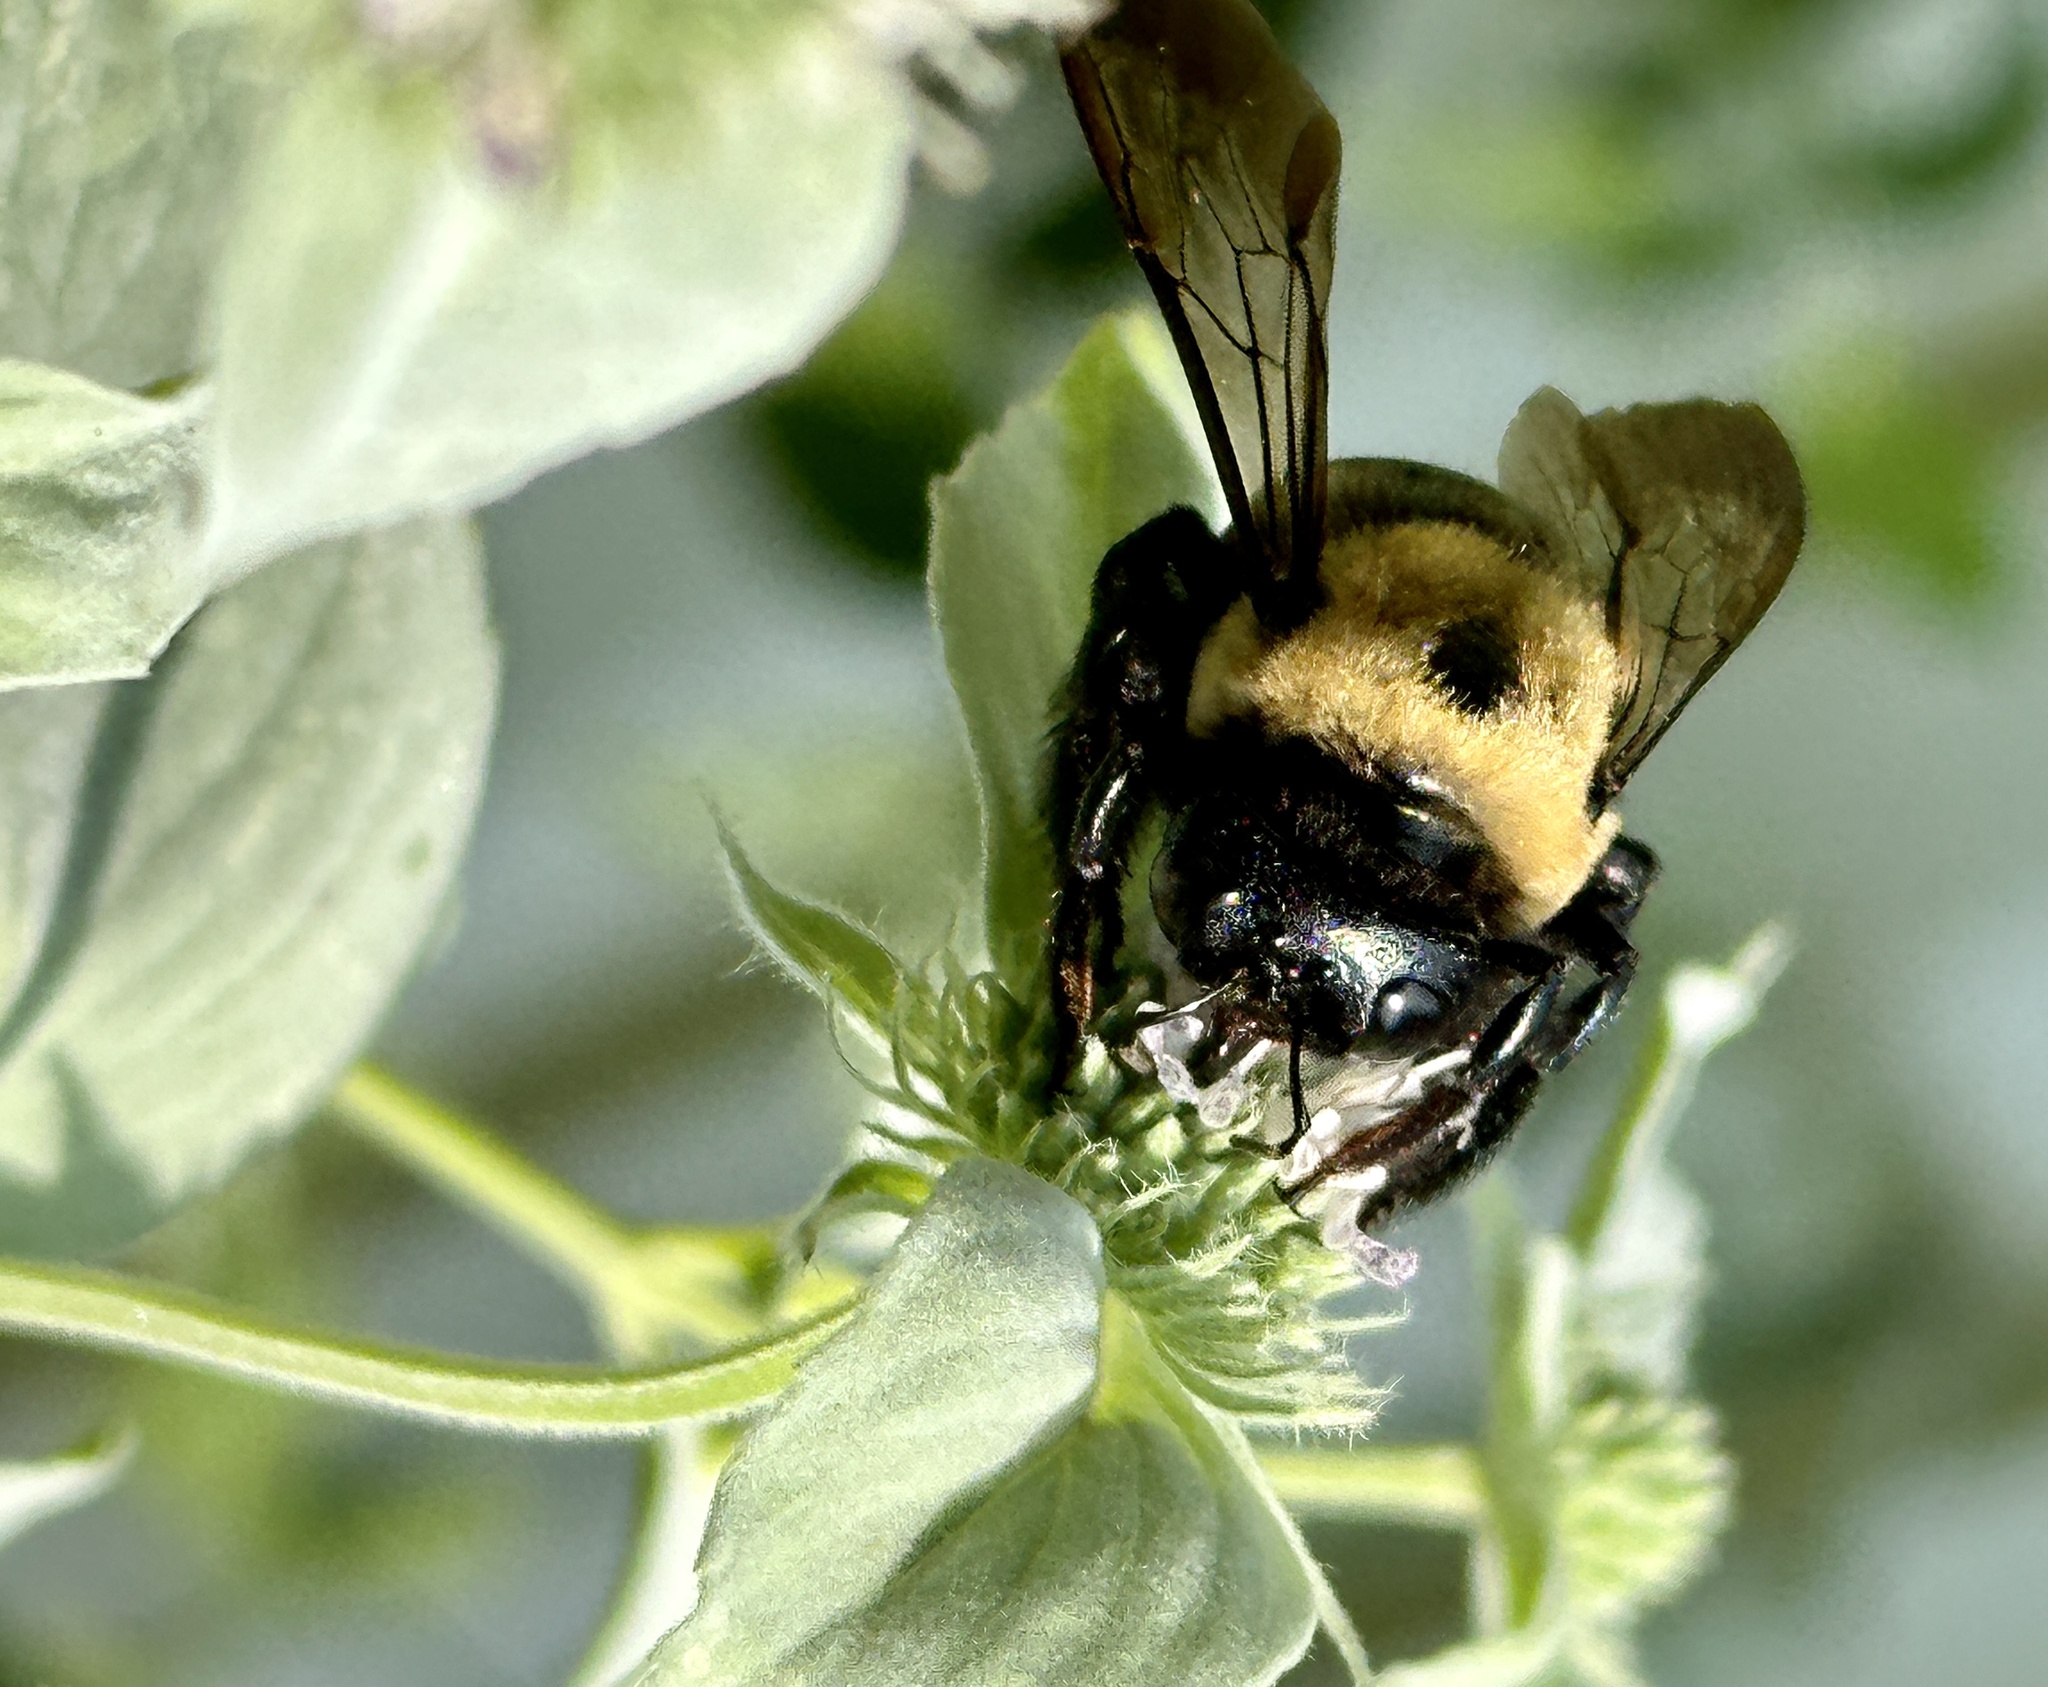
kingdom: Animalia
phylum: Arthropoda
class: Insecta
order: Hymenoptera
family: Apidae
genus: Xylocopa
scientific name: Xylocopa virginica
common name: Carpenter bee
